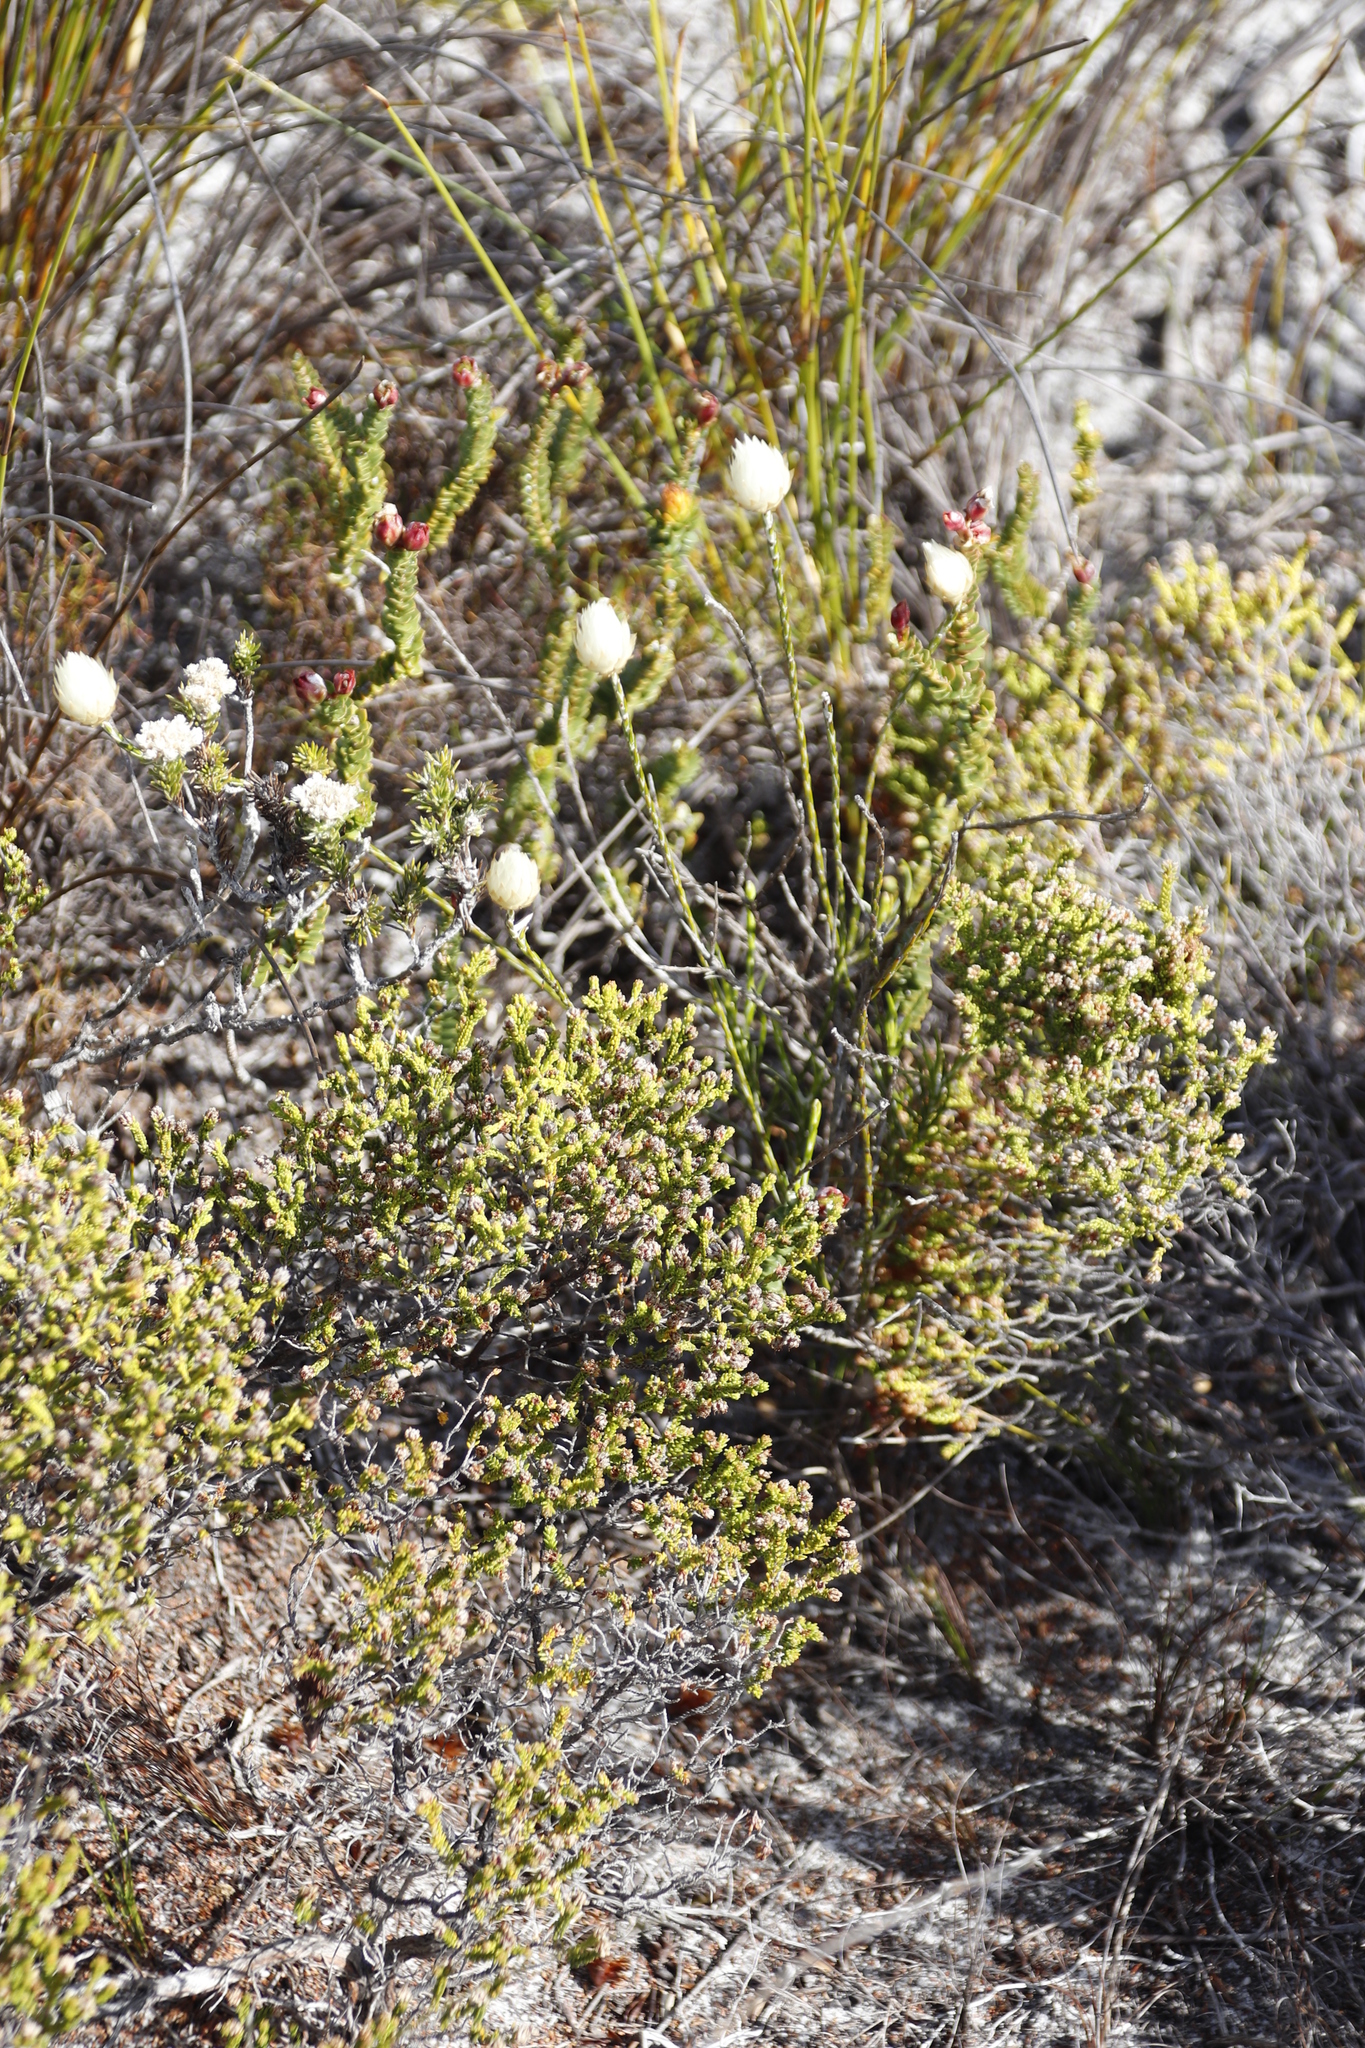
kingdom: Plantae
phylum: Tracheophyta
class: Magnoliopsida
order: Asterales
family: Asteraceae
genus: Edmondia
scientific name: Edmondia sesamoides
